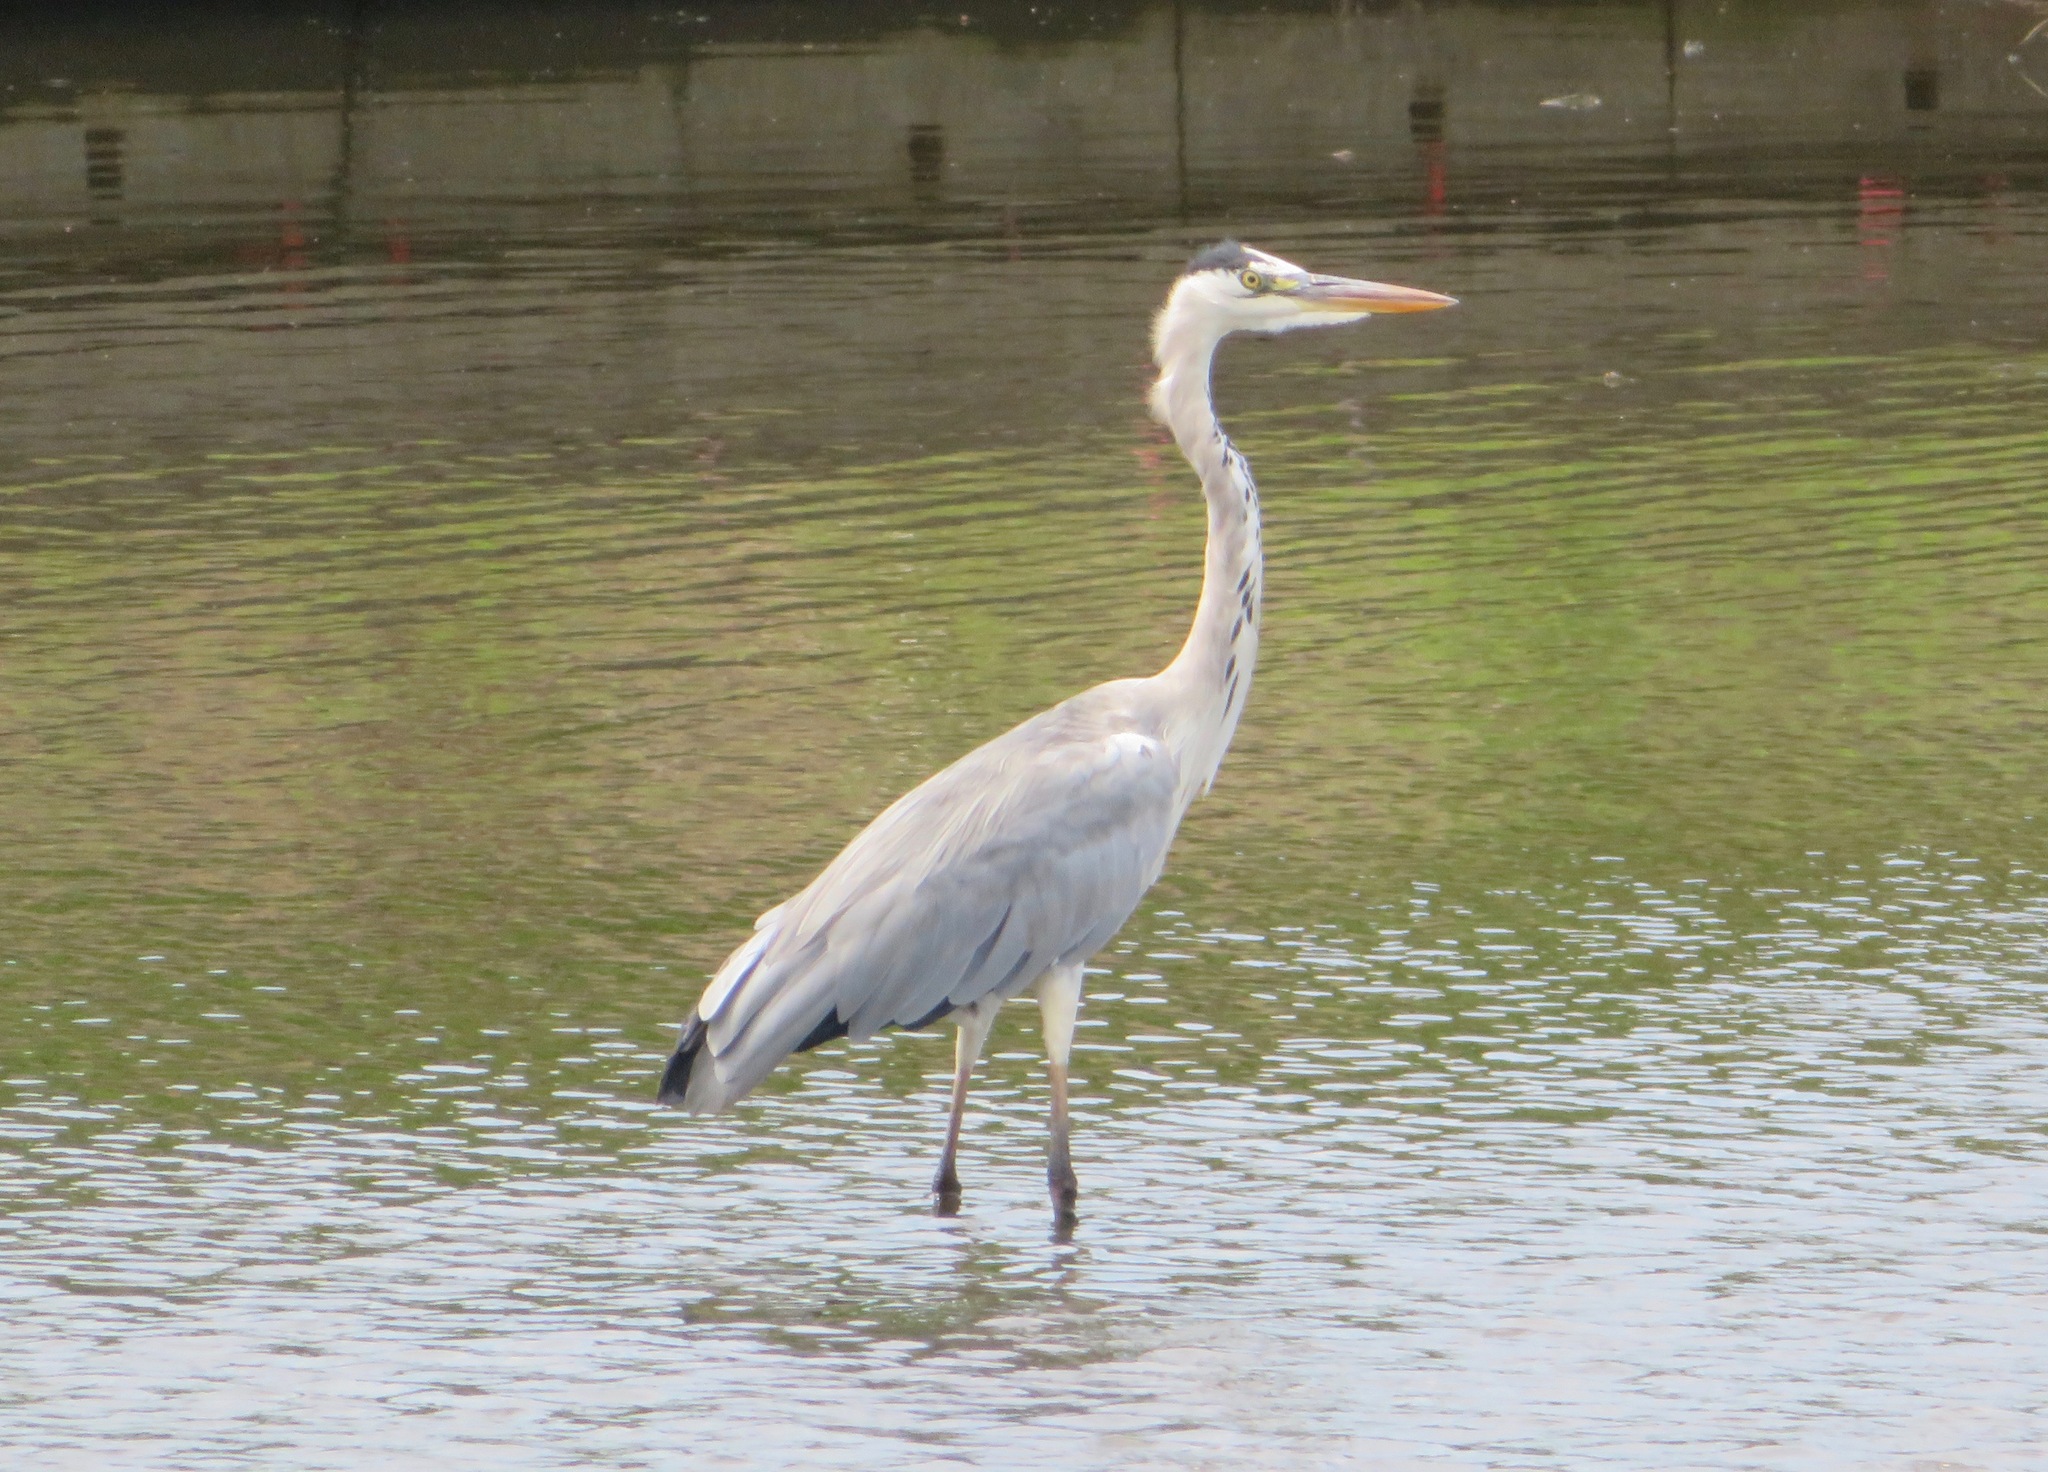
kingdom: Animalia
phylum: Chordata
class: Aves
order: Pelecaniformes
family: Ardeidae
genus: Ardea
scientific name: Ardea cinerea
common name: Grey heron
